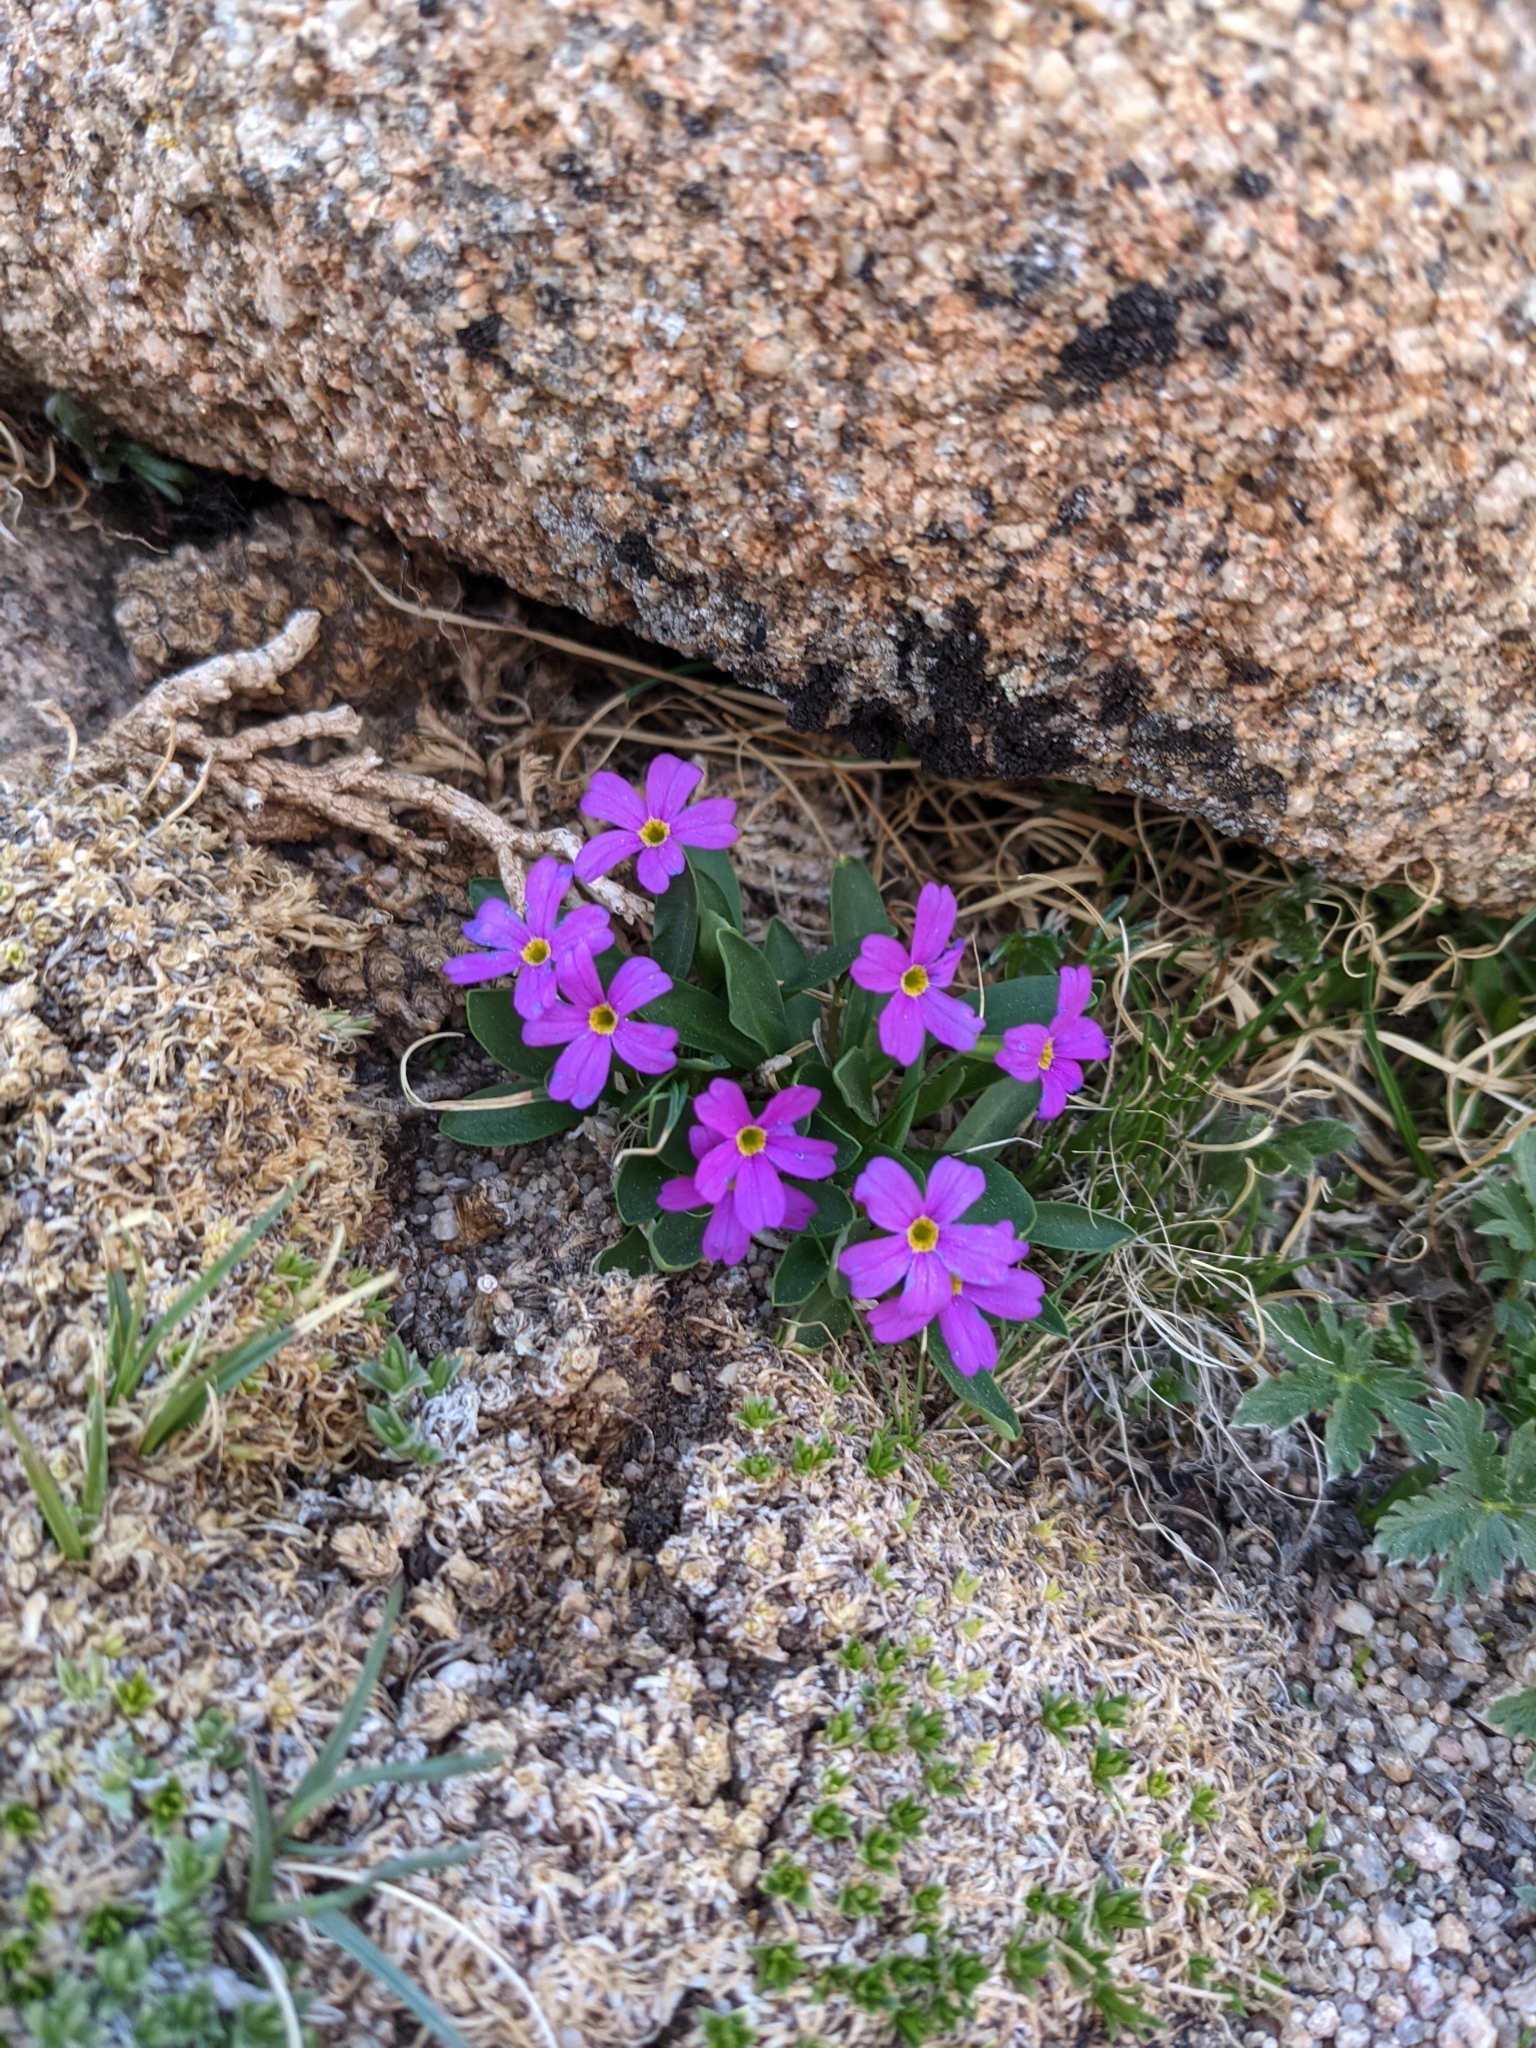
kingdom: Plantae
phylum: Tracheophyta
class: Magnoliopsida
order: Ericales
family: Primulaceae
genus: Primula
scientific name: Primula angustifolia
